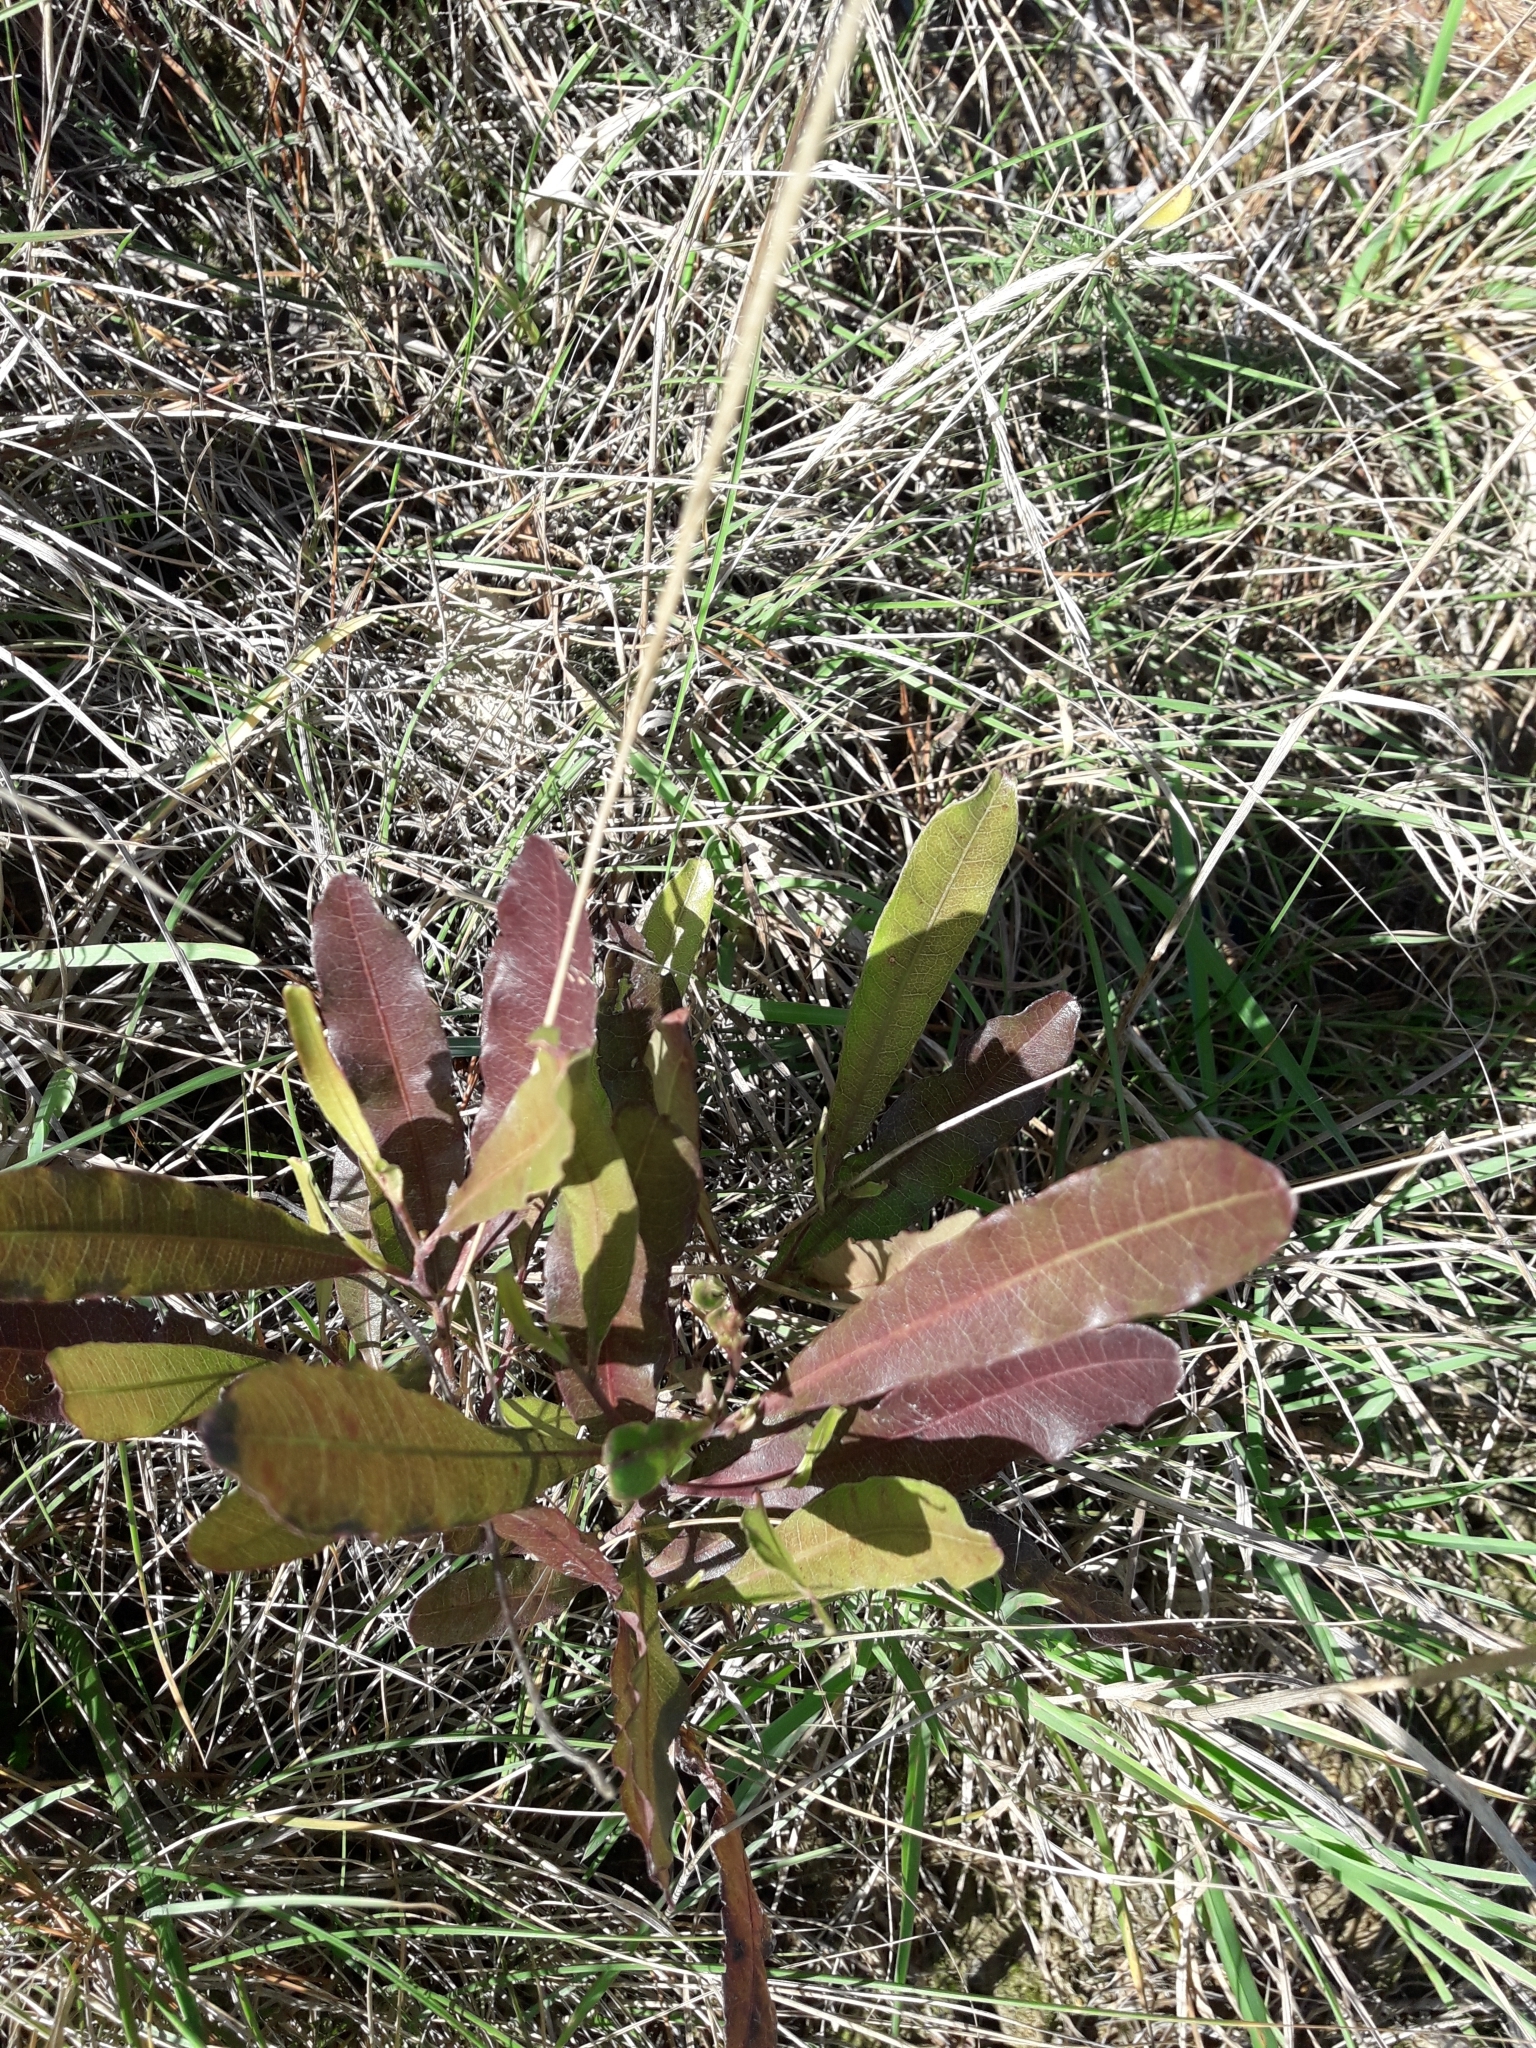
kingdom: Plantae
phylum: Tracheophyta
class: Magnoliopsida
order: Sapindales
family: Sapindaceae
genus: Dodonaea
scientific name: Dodonaea viscosa
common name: Hopbush
